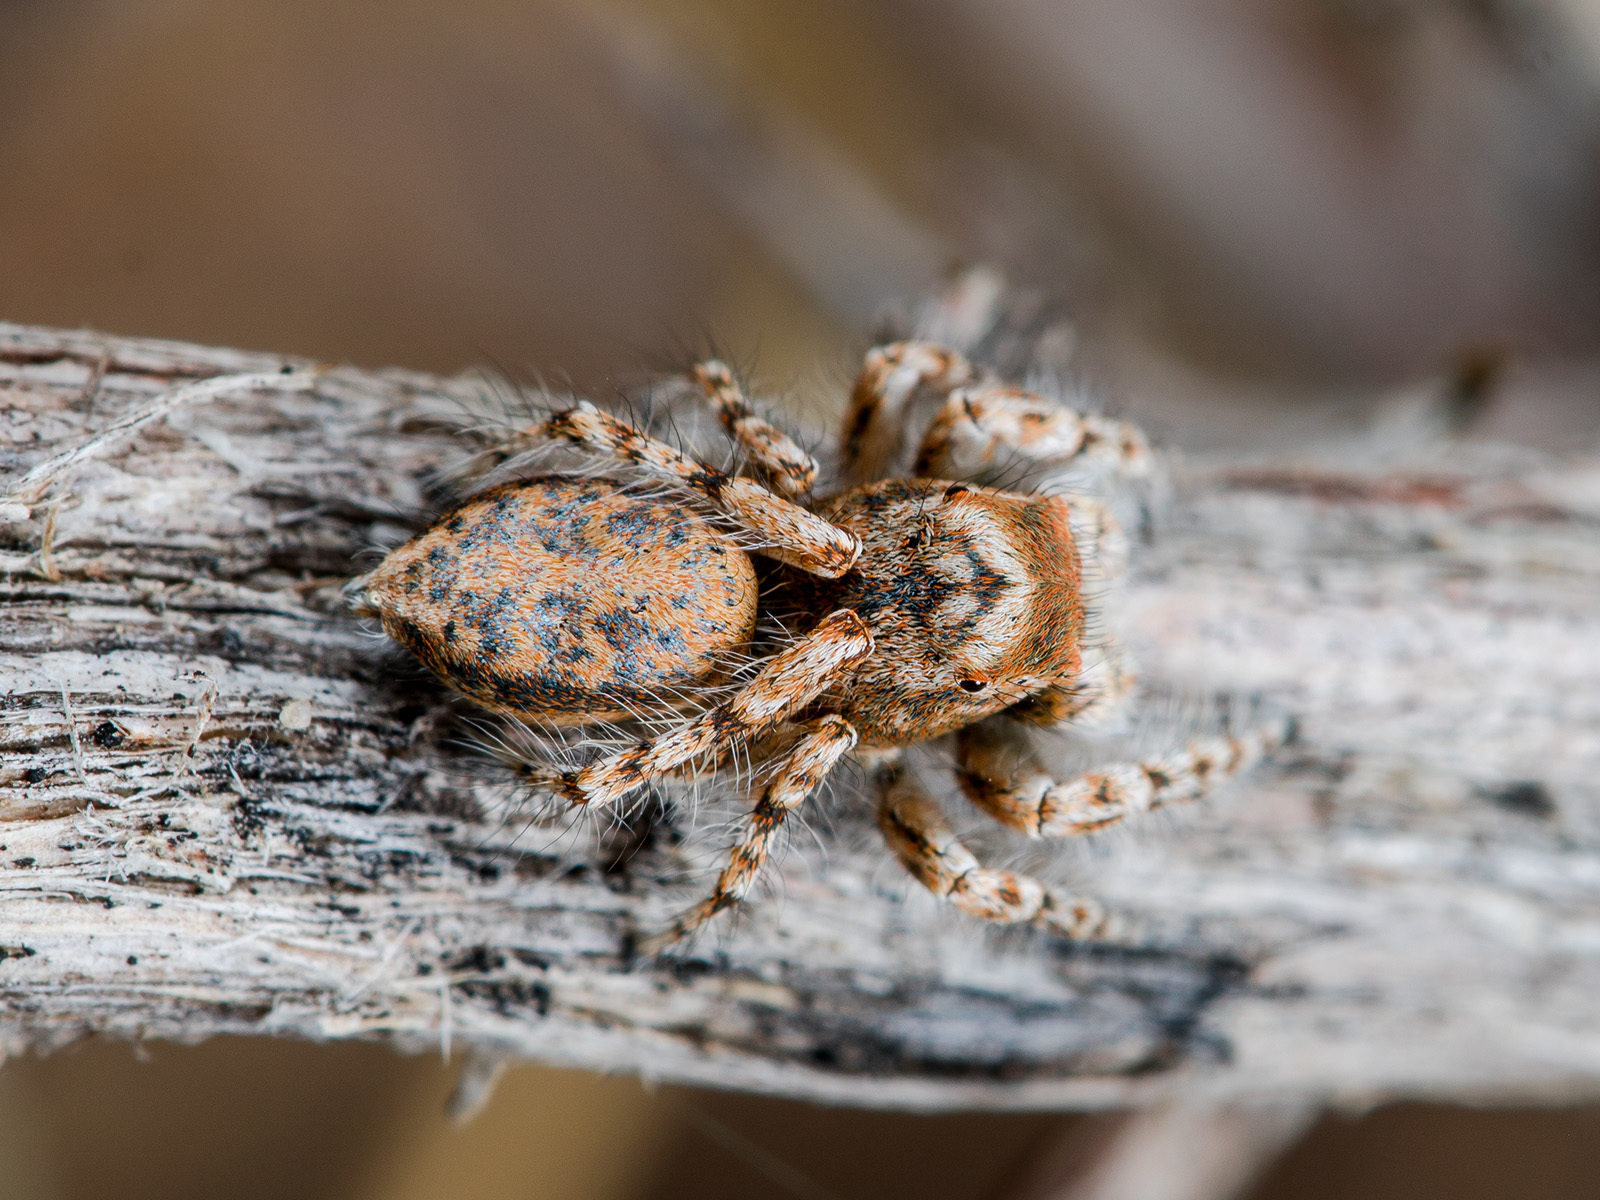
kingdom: Animalia
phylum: Arthropoda
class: Arachnida
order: Araneae
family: Salticidae
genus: Yllenus
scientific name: Yllenus uiguricus
